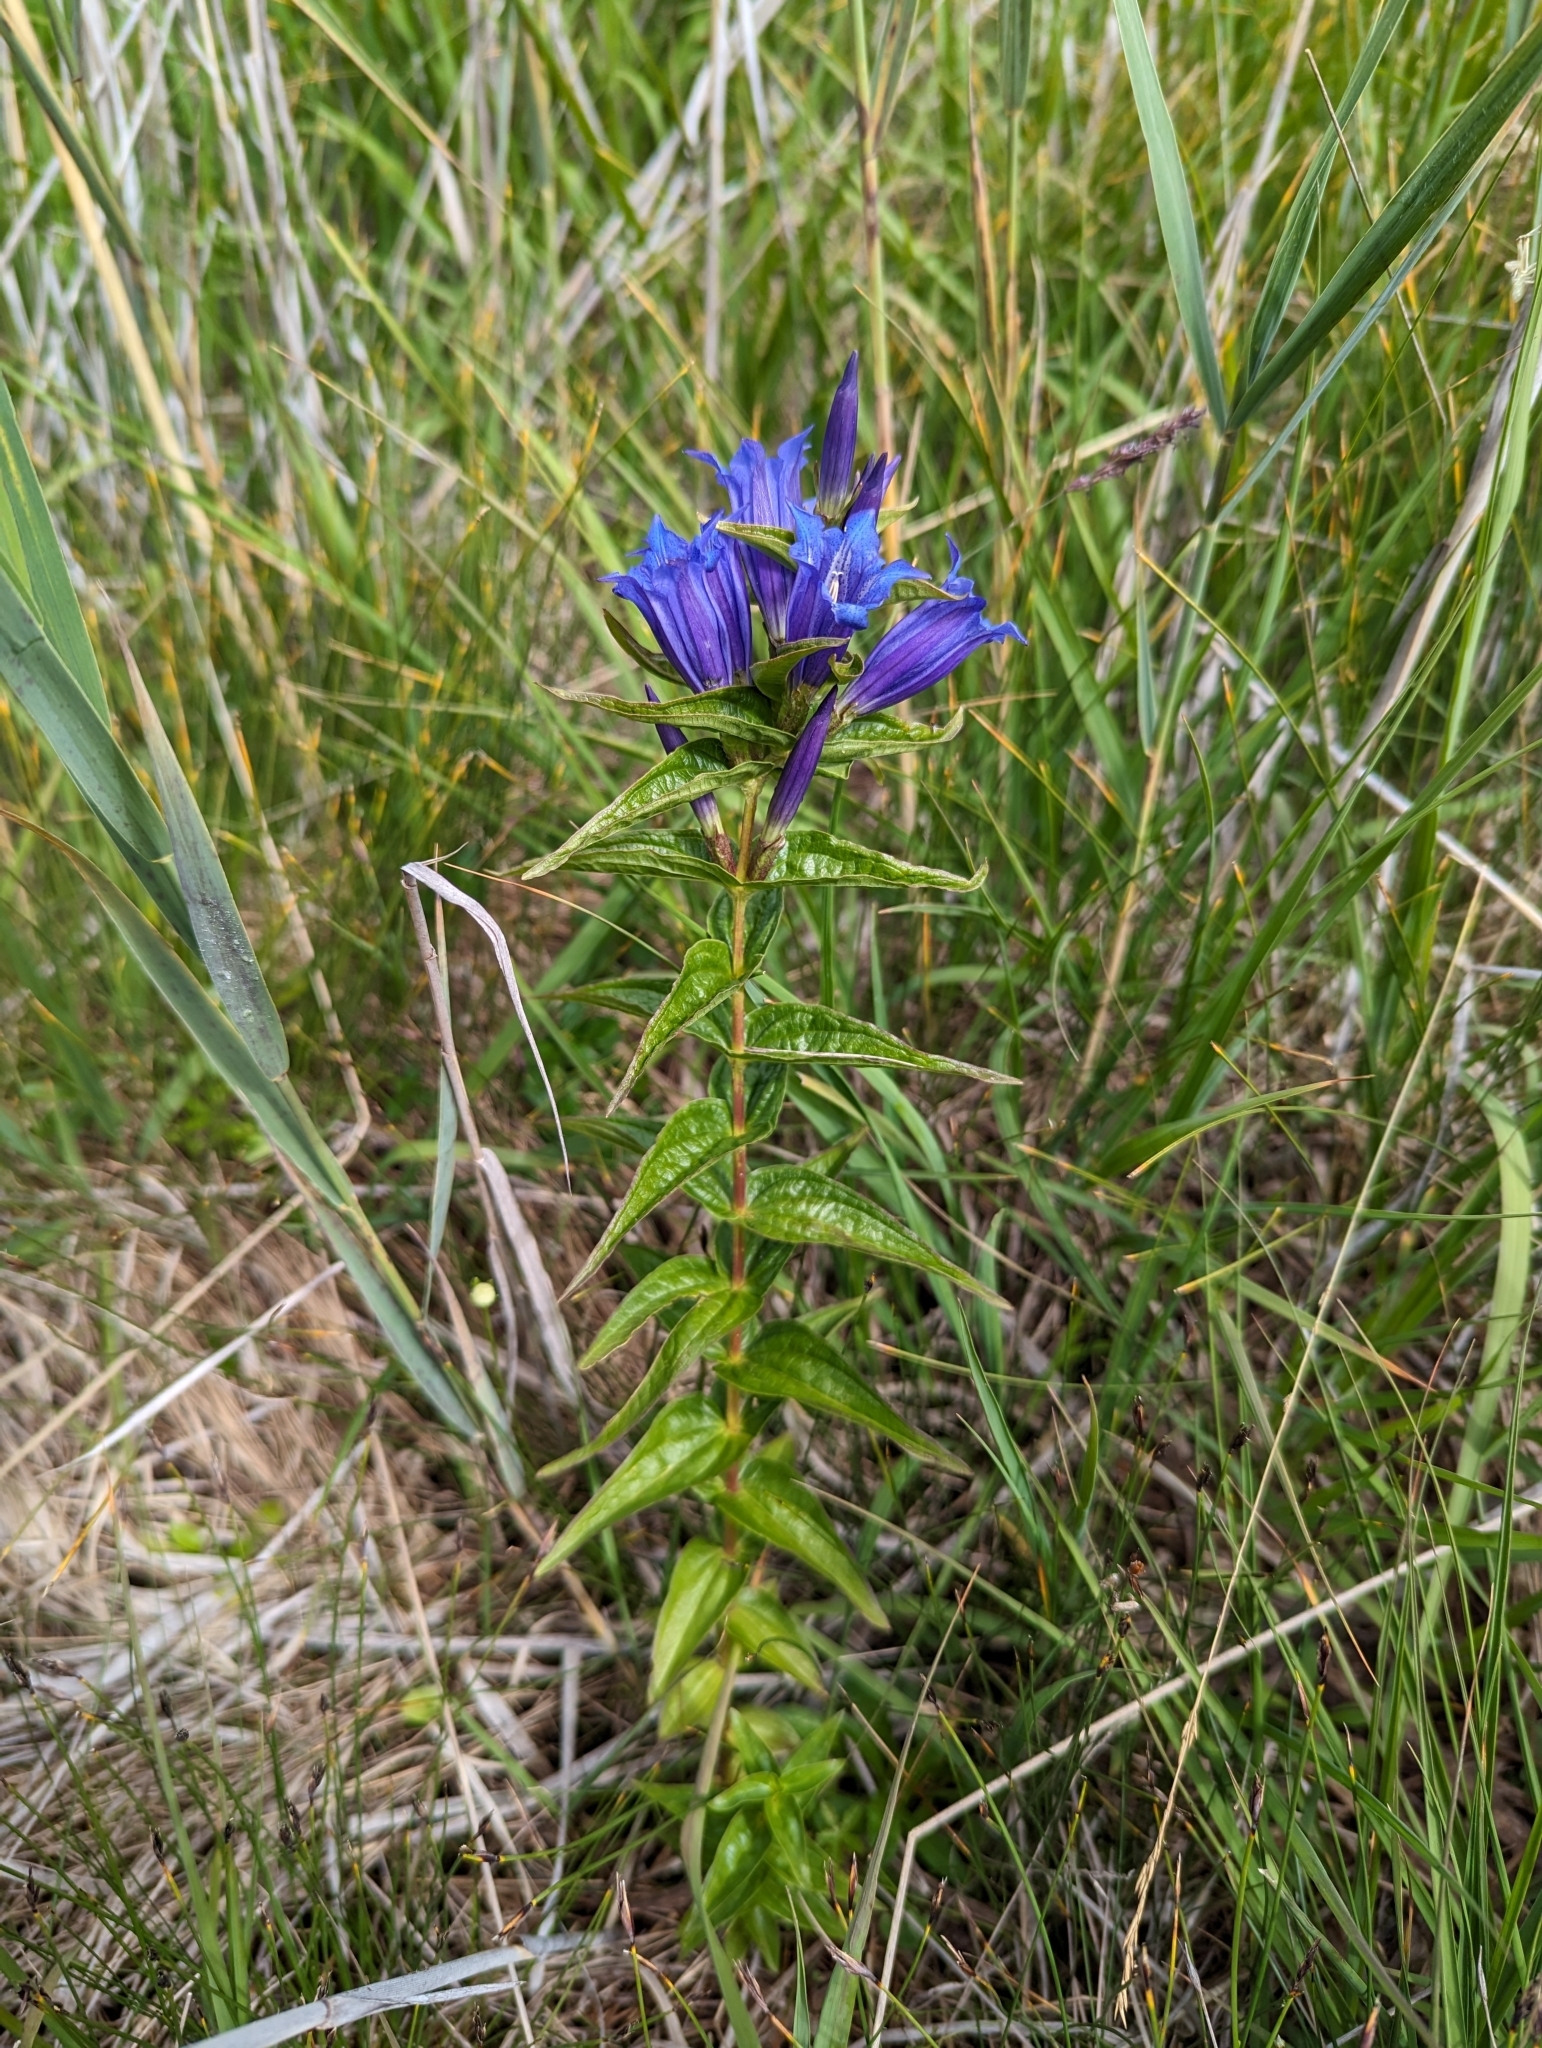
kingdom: Plantae
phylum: Tracheophyta
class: Magnoliopsida
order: Gentianales
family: Gentianaceae
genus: Gentiana
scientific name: Gentiana asclepiadea
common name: Willow gentian
